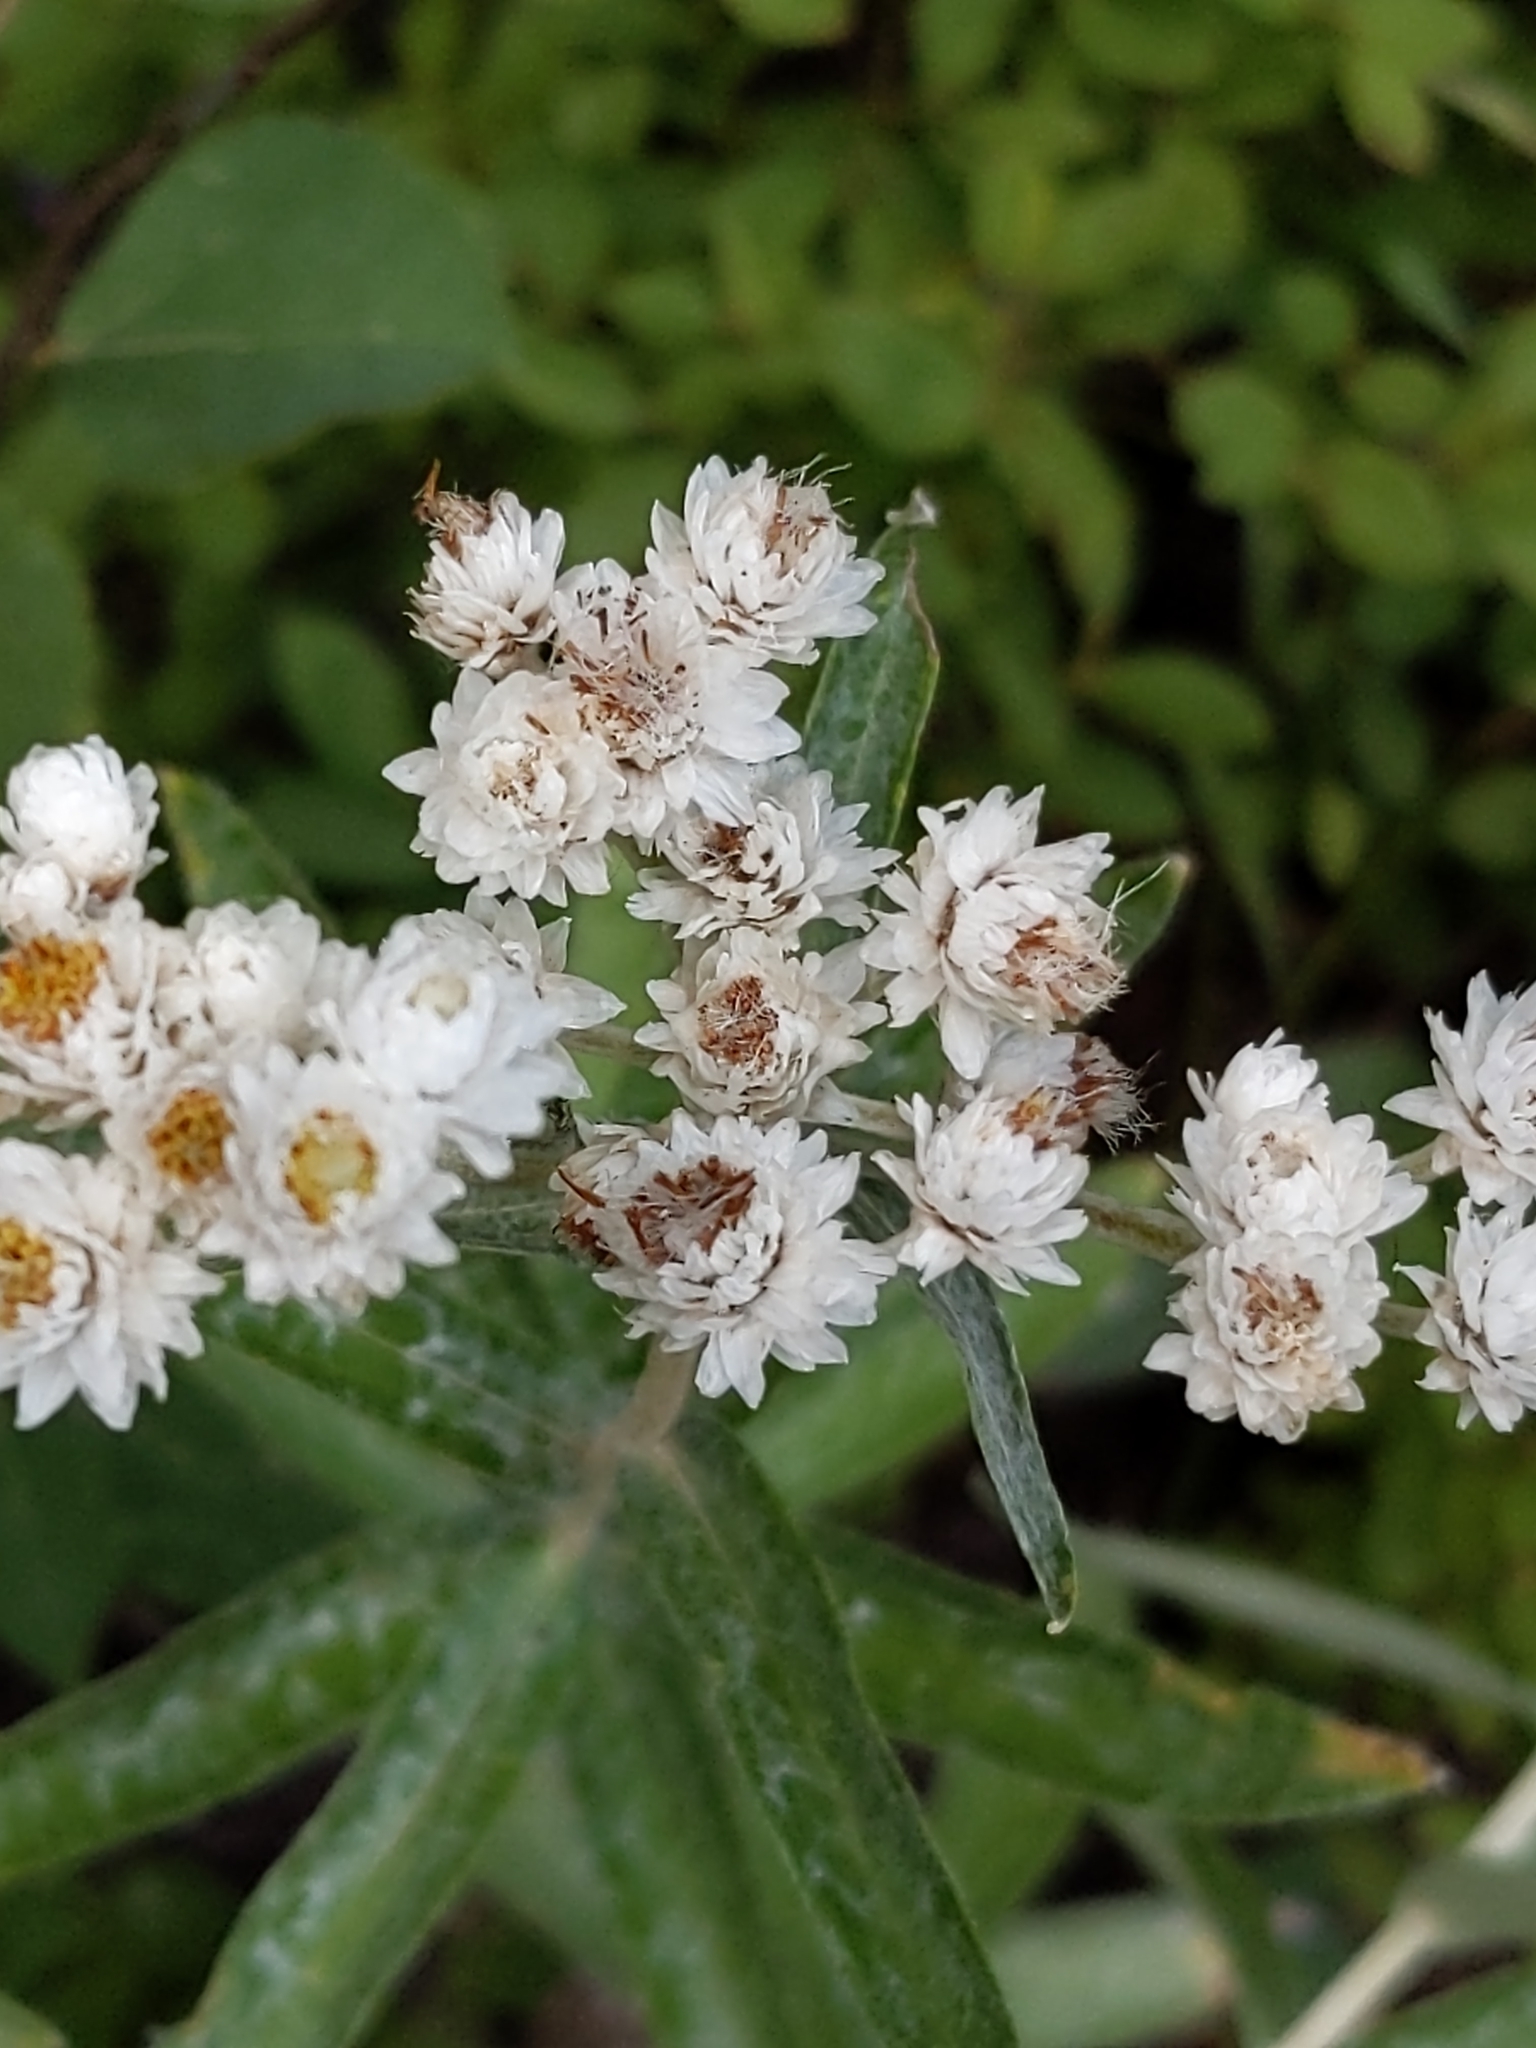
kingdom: Plantae
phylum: Tracheophyta
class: Magnoliopsida
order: Asterales
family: Asteraceae
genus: Anaphalis
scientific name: Anaphalis margaritacea
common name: Pearly everlasting
